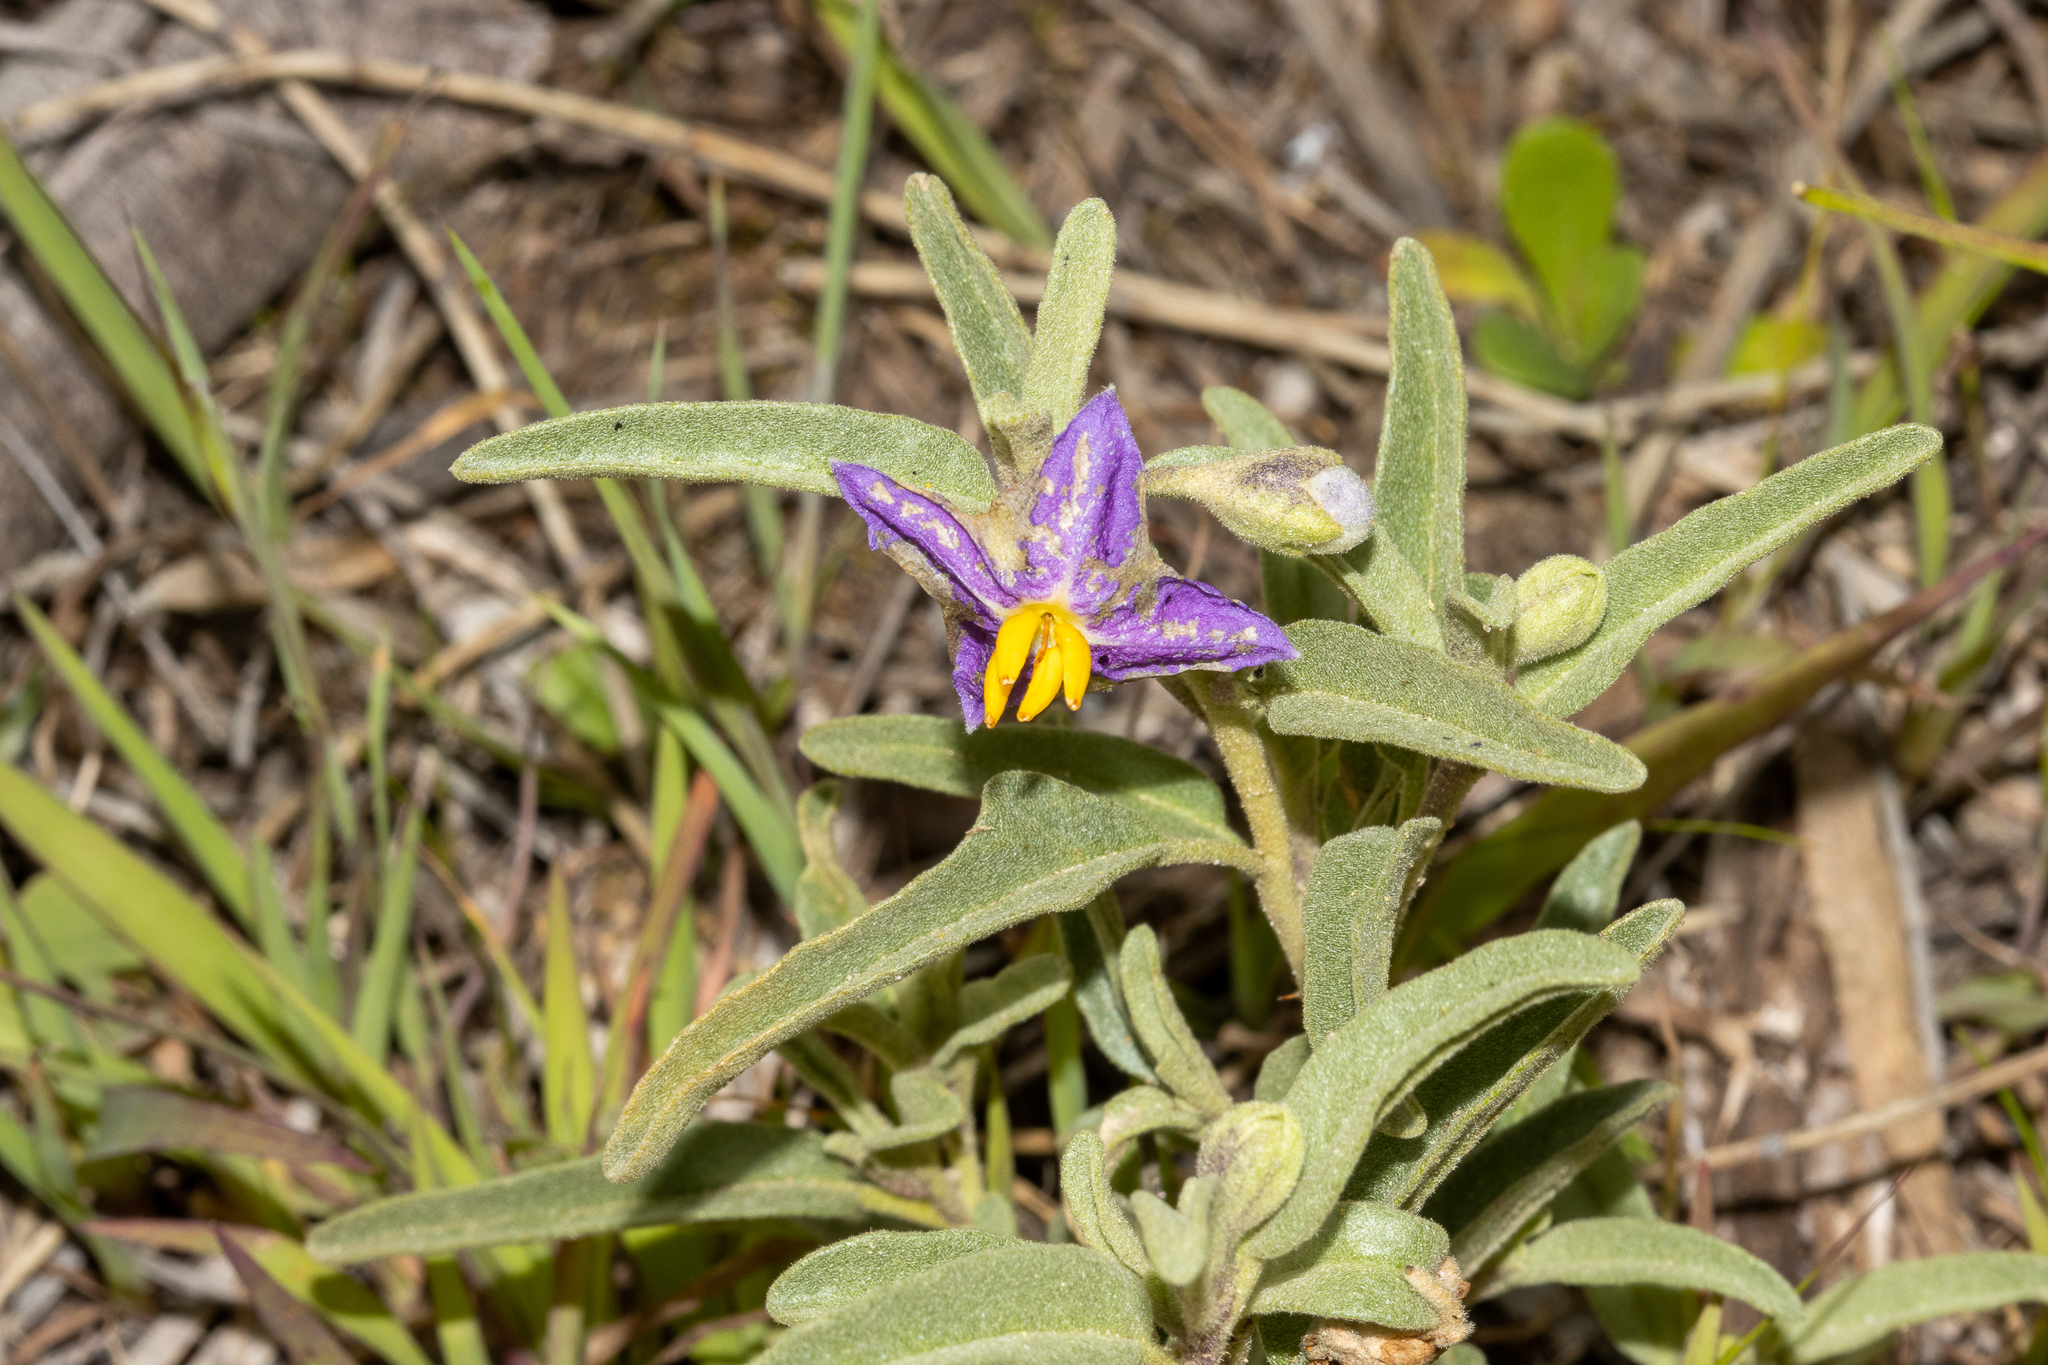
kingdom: Plantae
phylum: Tracheophyta
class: Magnoliopsida
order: Solanales
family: Solanaceae
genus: Solanum
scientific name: Solanum coactiliferum
